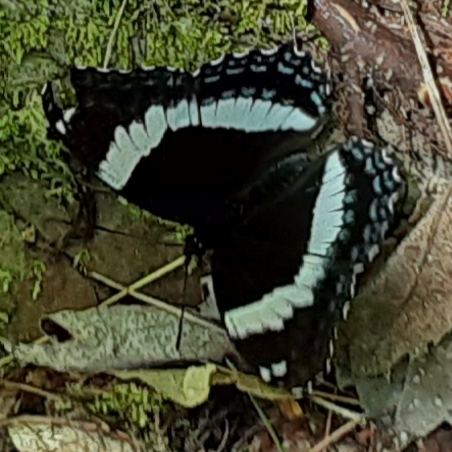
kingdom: Animalia
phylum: Arthropoda
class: Insecta
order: Lepidoptera
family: Nymphalidae
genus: Limenitis
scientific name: Limenitis arthemis
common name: Red-spotted admiral
